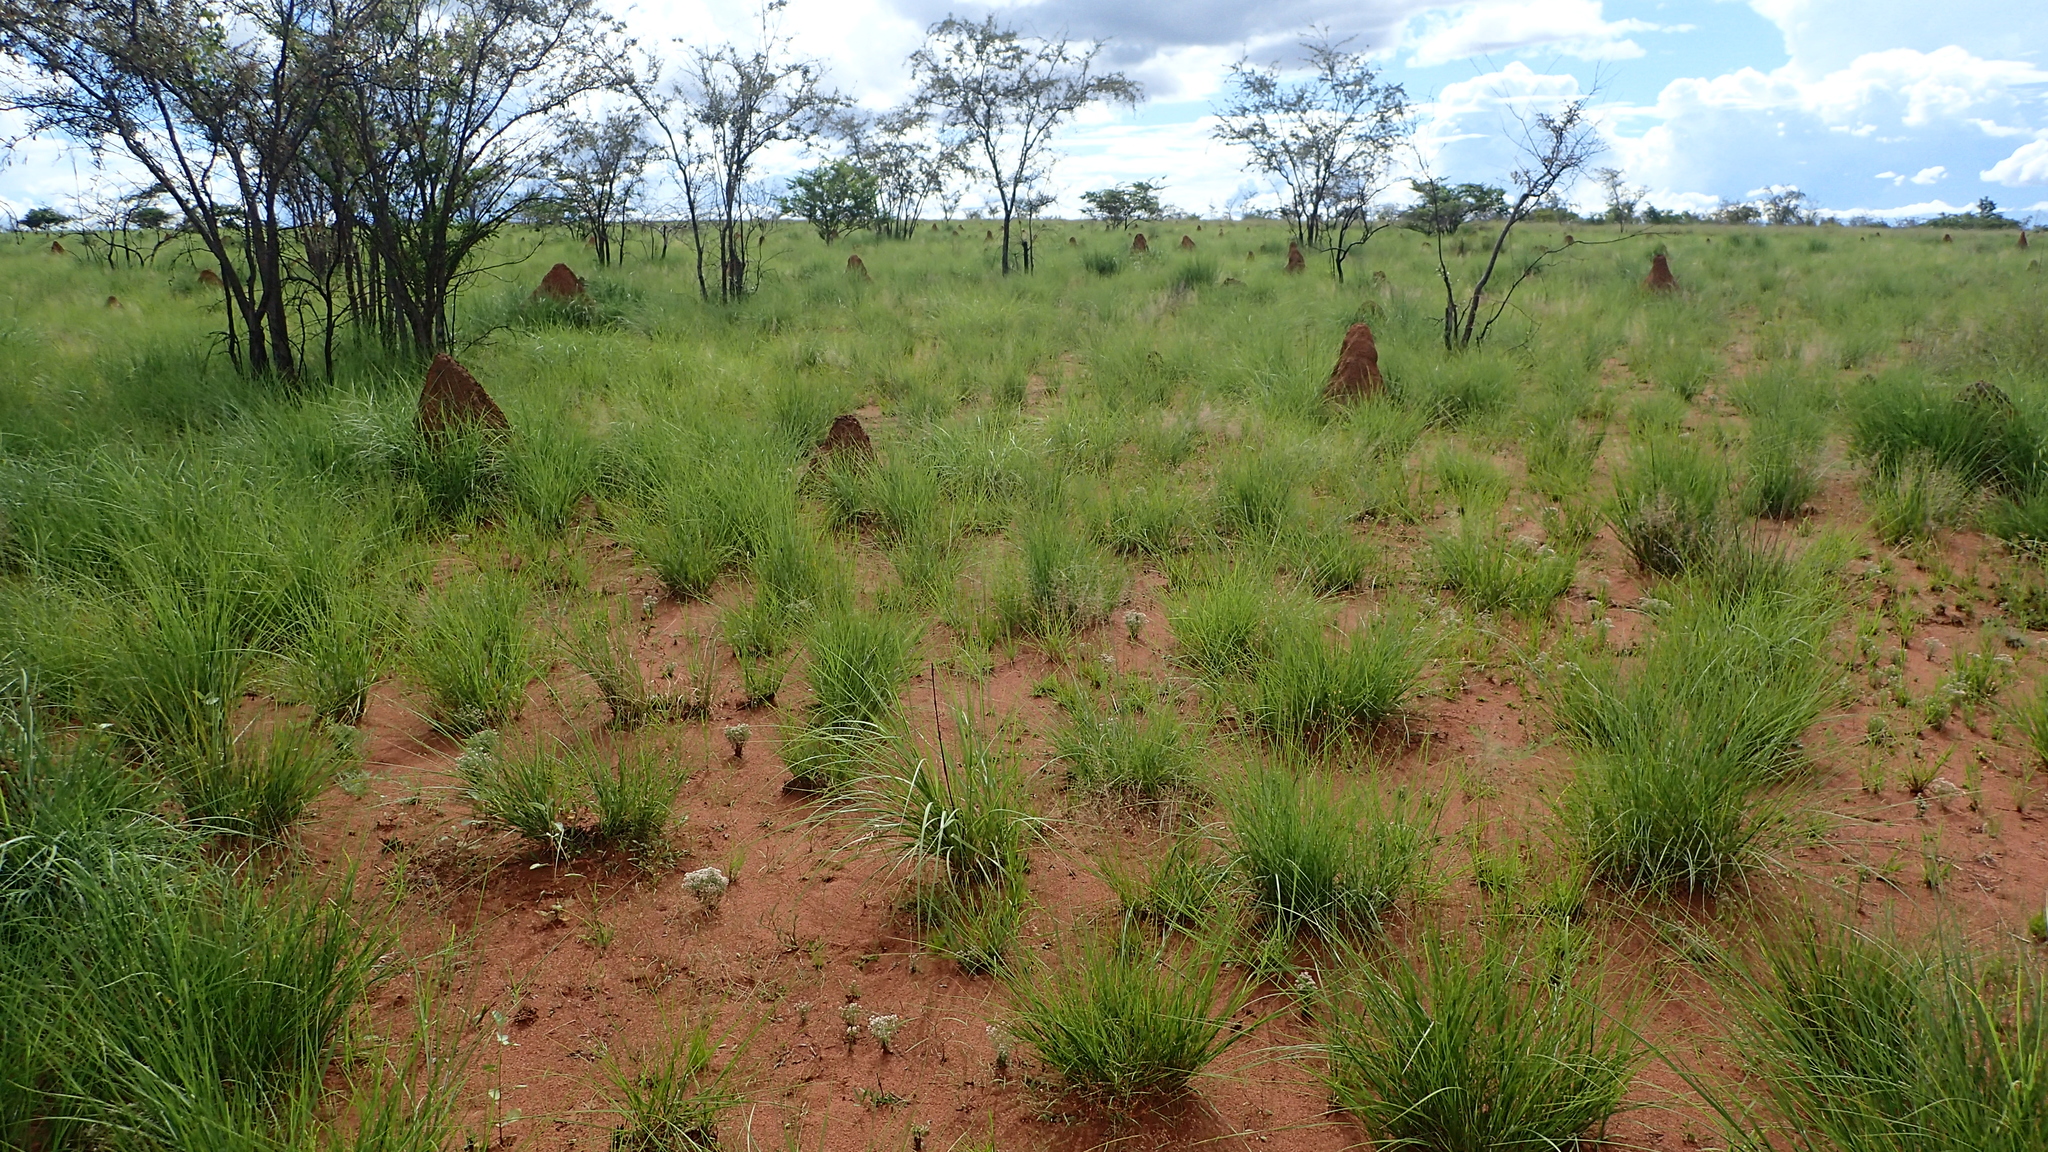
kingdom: Plantae
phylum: Tracheophyta
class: Liliopsida
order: Poales
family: Poaceae
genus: Aristida
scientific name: Aristida rufescens
